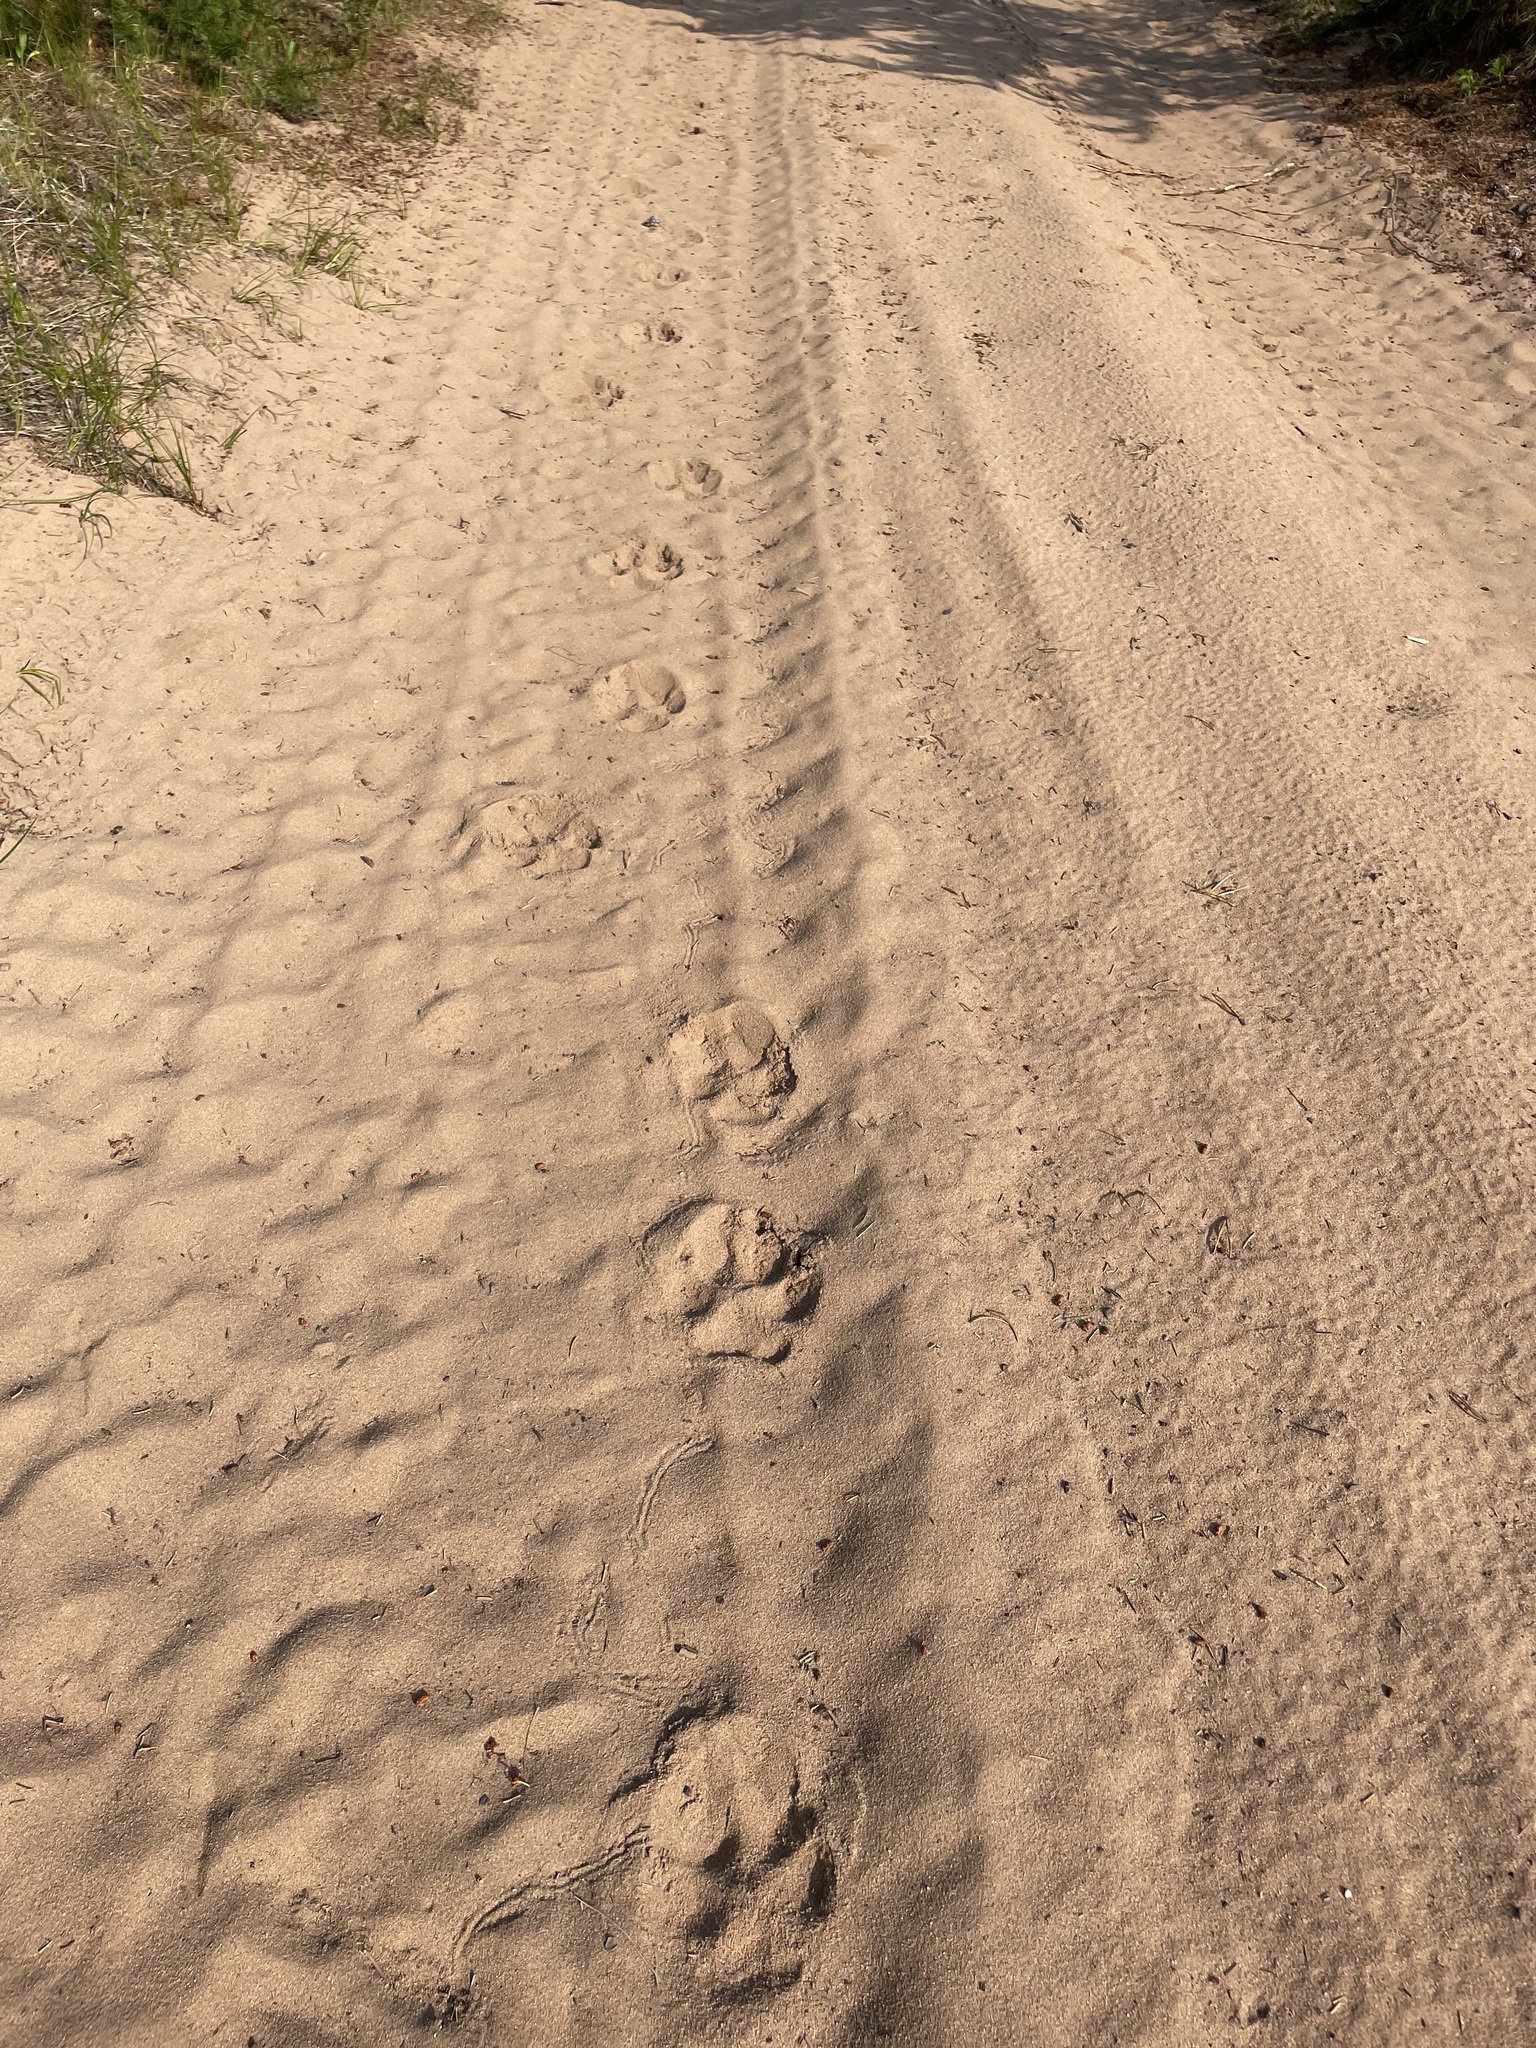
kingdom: Animalia
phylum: Chordata
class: Mammalia
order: Carnivora
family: Canidae
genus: Canis
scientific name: Canis lupus
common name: Gray wolf
